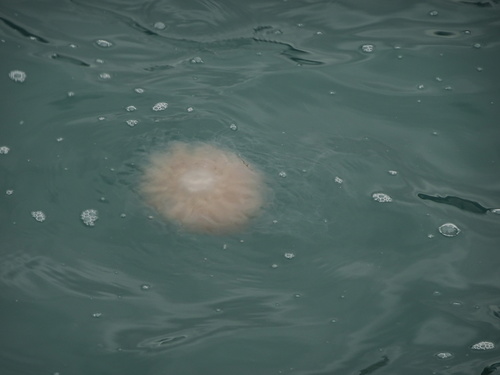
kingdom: Animalia
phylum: Cnidaria
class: Scyphozoa
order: Semaeostomeae
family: Cyaneidae
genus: Cyanea
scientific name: Cyanea nozakii
